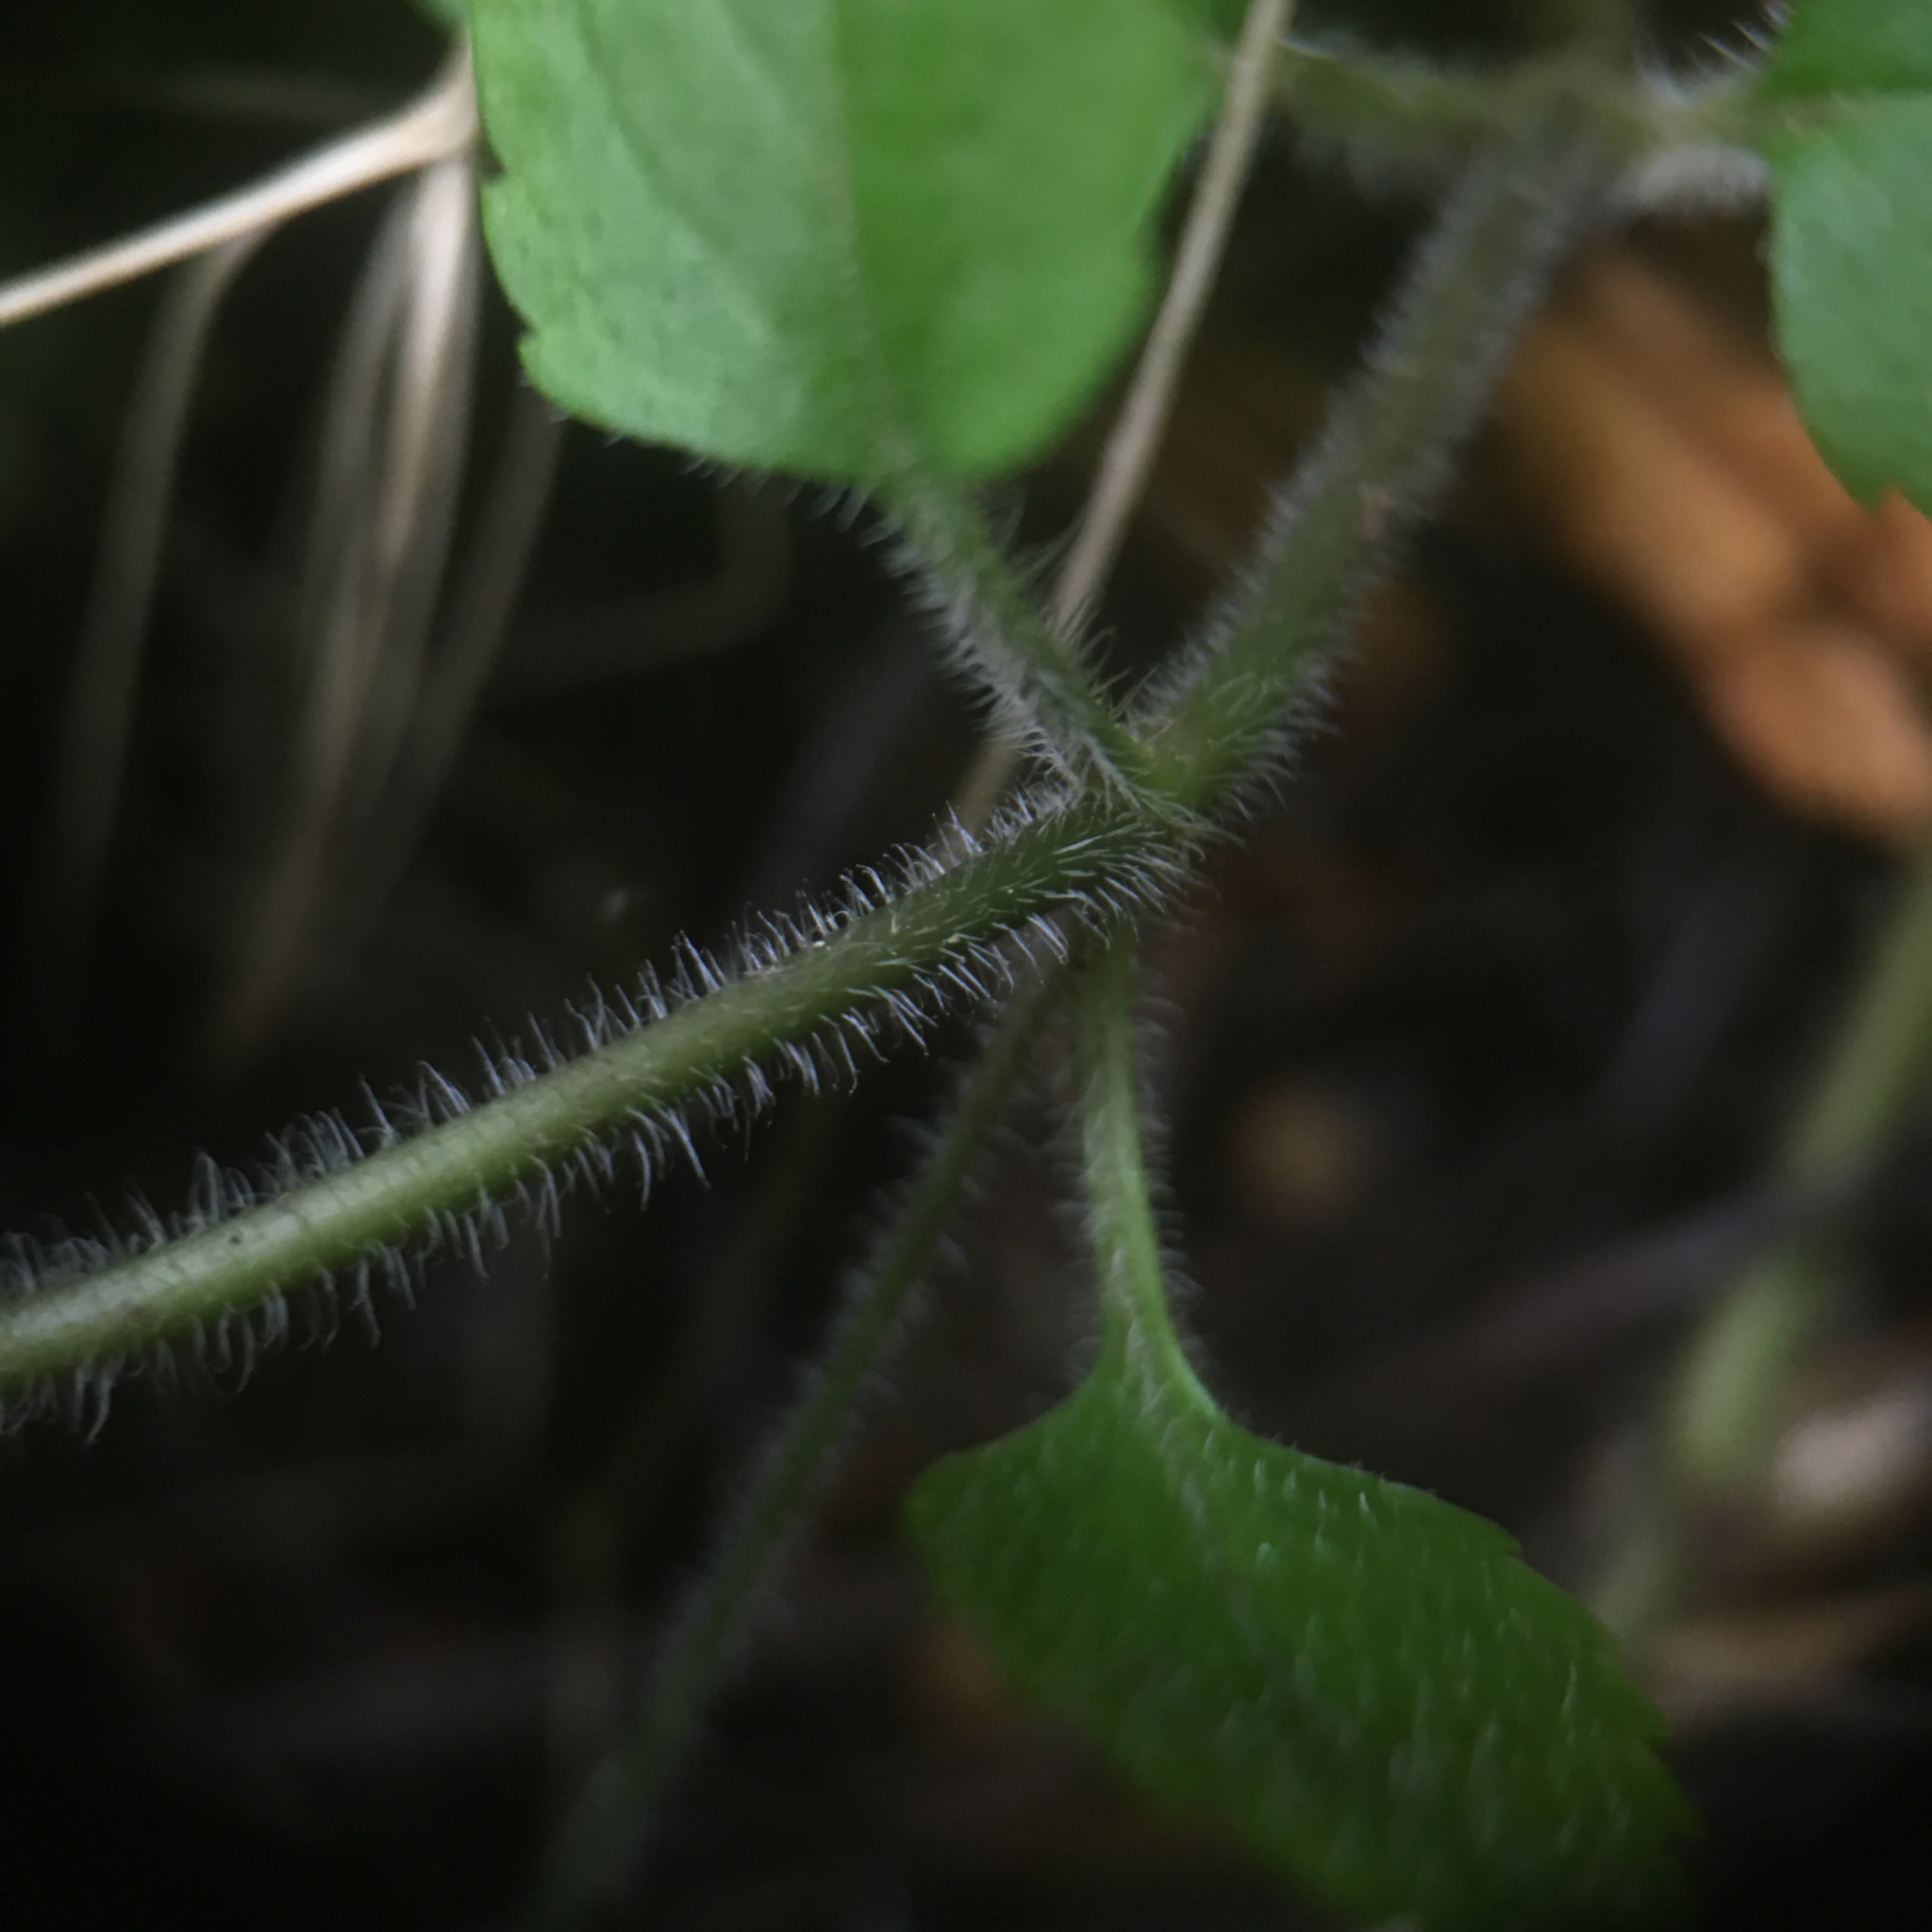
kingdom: Plantae
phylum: Tracheophyta
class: Magnoliopsida
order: Lamiales
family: Plantaginaceae
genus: Veronica
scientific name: Veronica montana
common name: Wood speedwell
